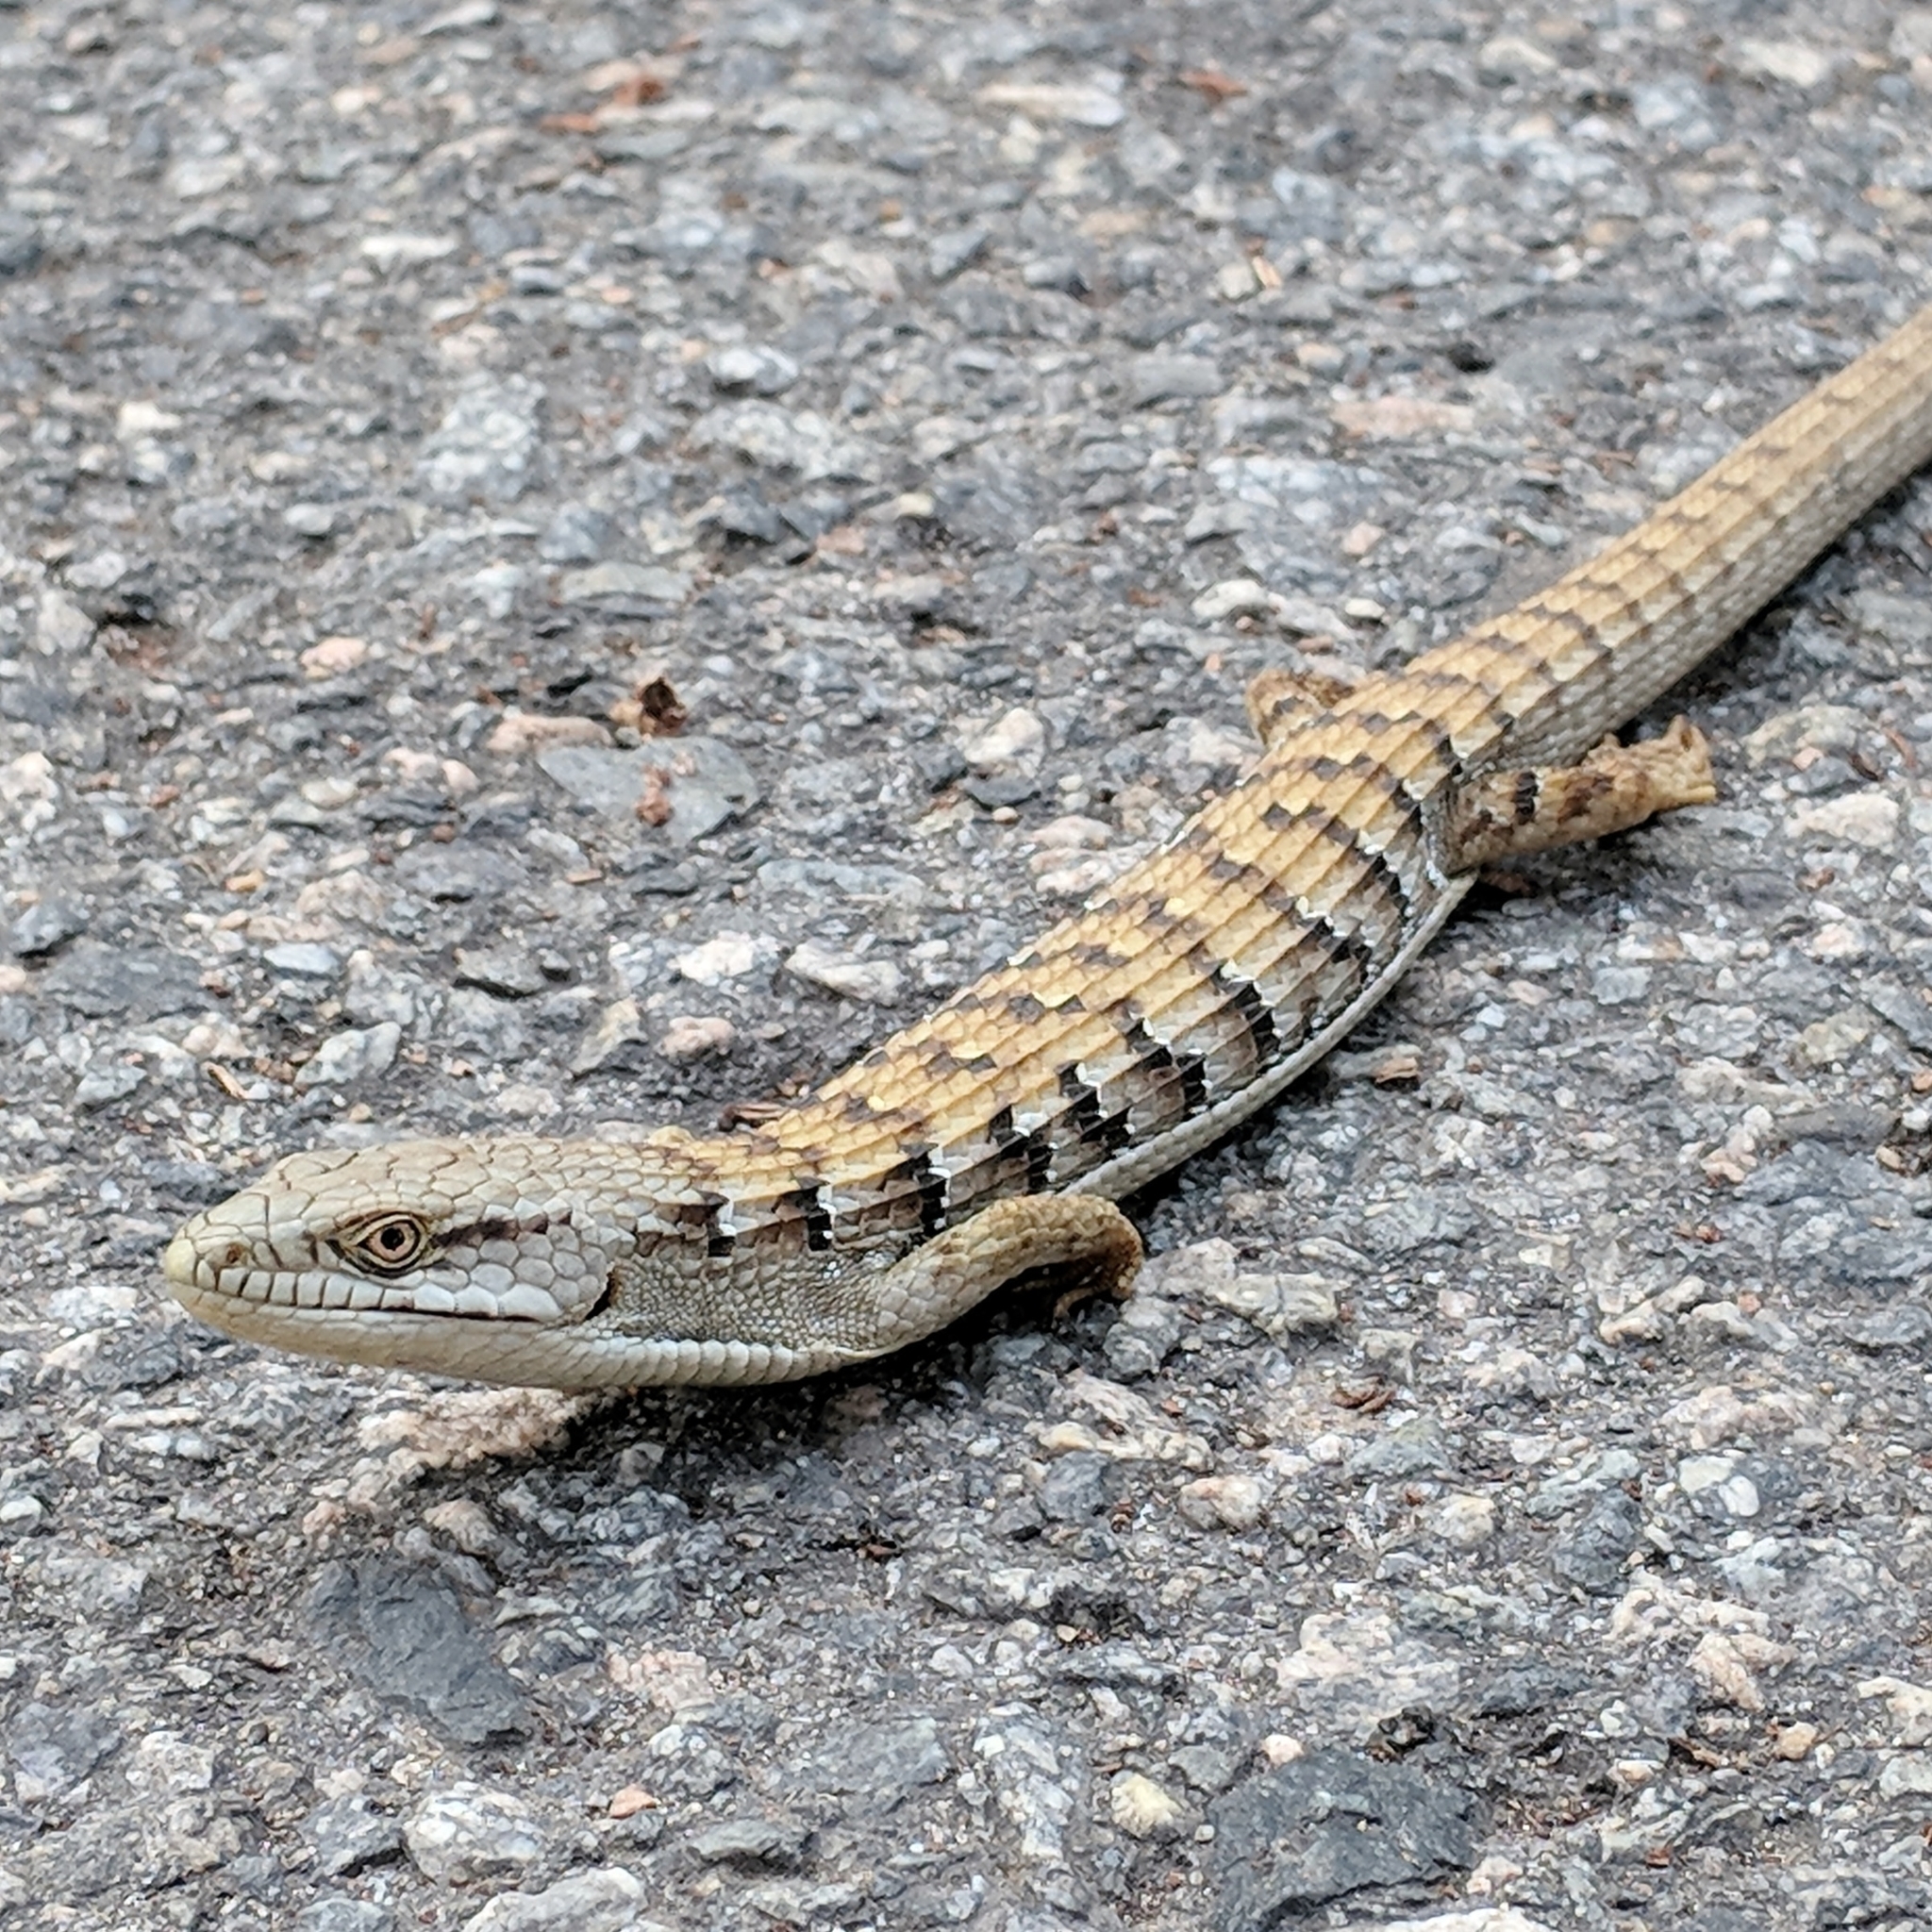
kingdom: Animalia
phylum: Chordata
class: Squamata
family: Anguidae
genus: Elgaria
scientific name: Elgaria multicarinata
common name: Southern alligator lizard
